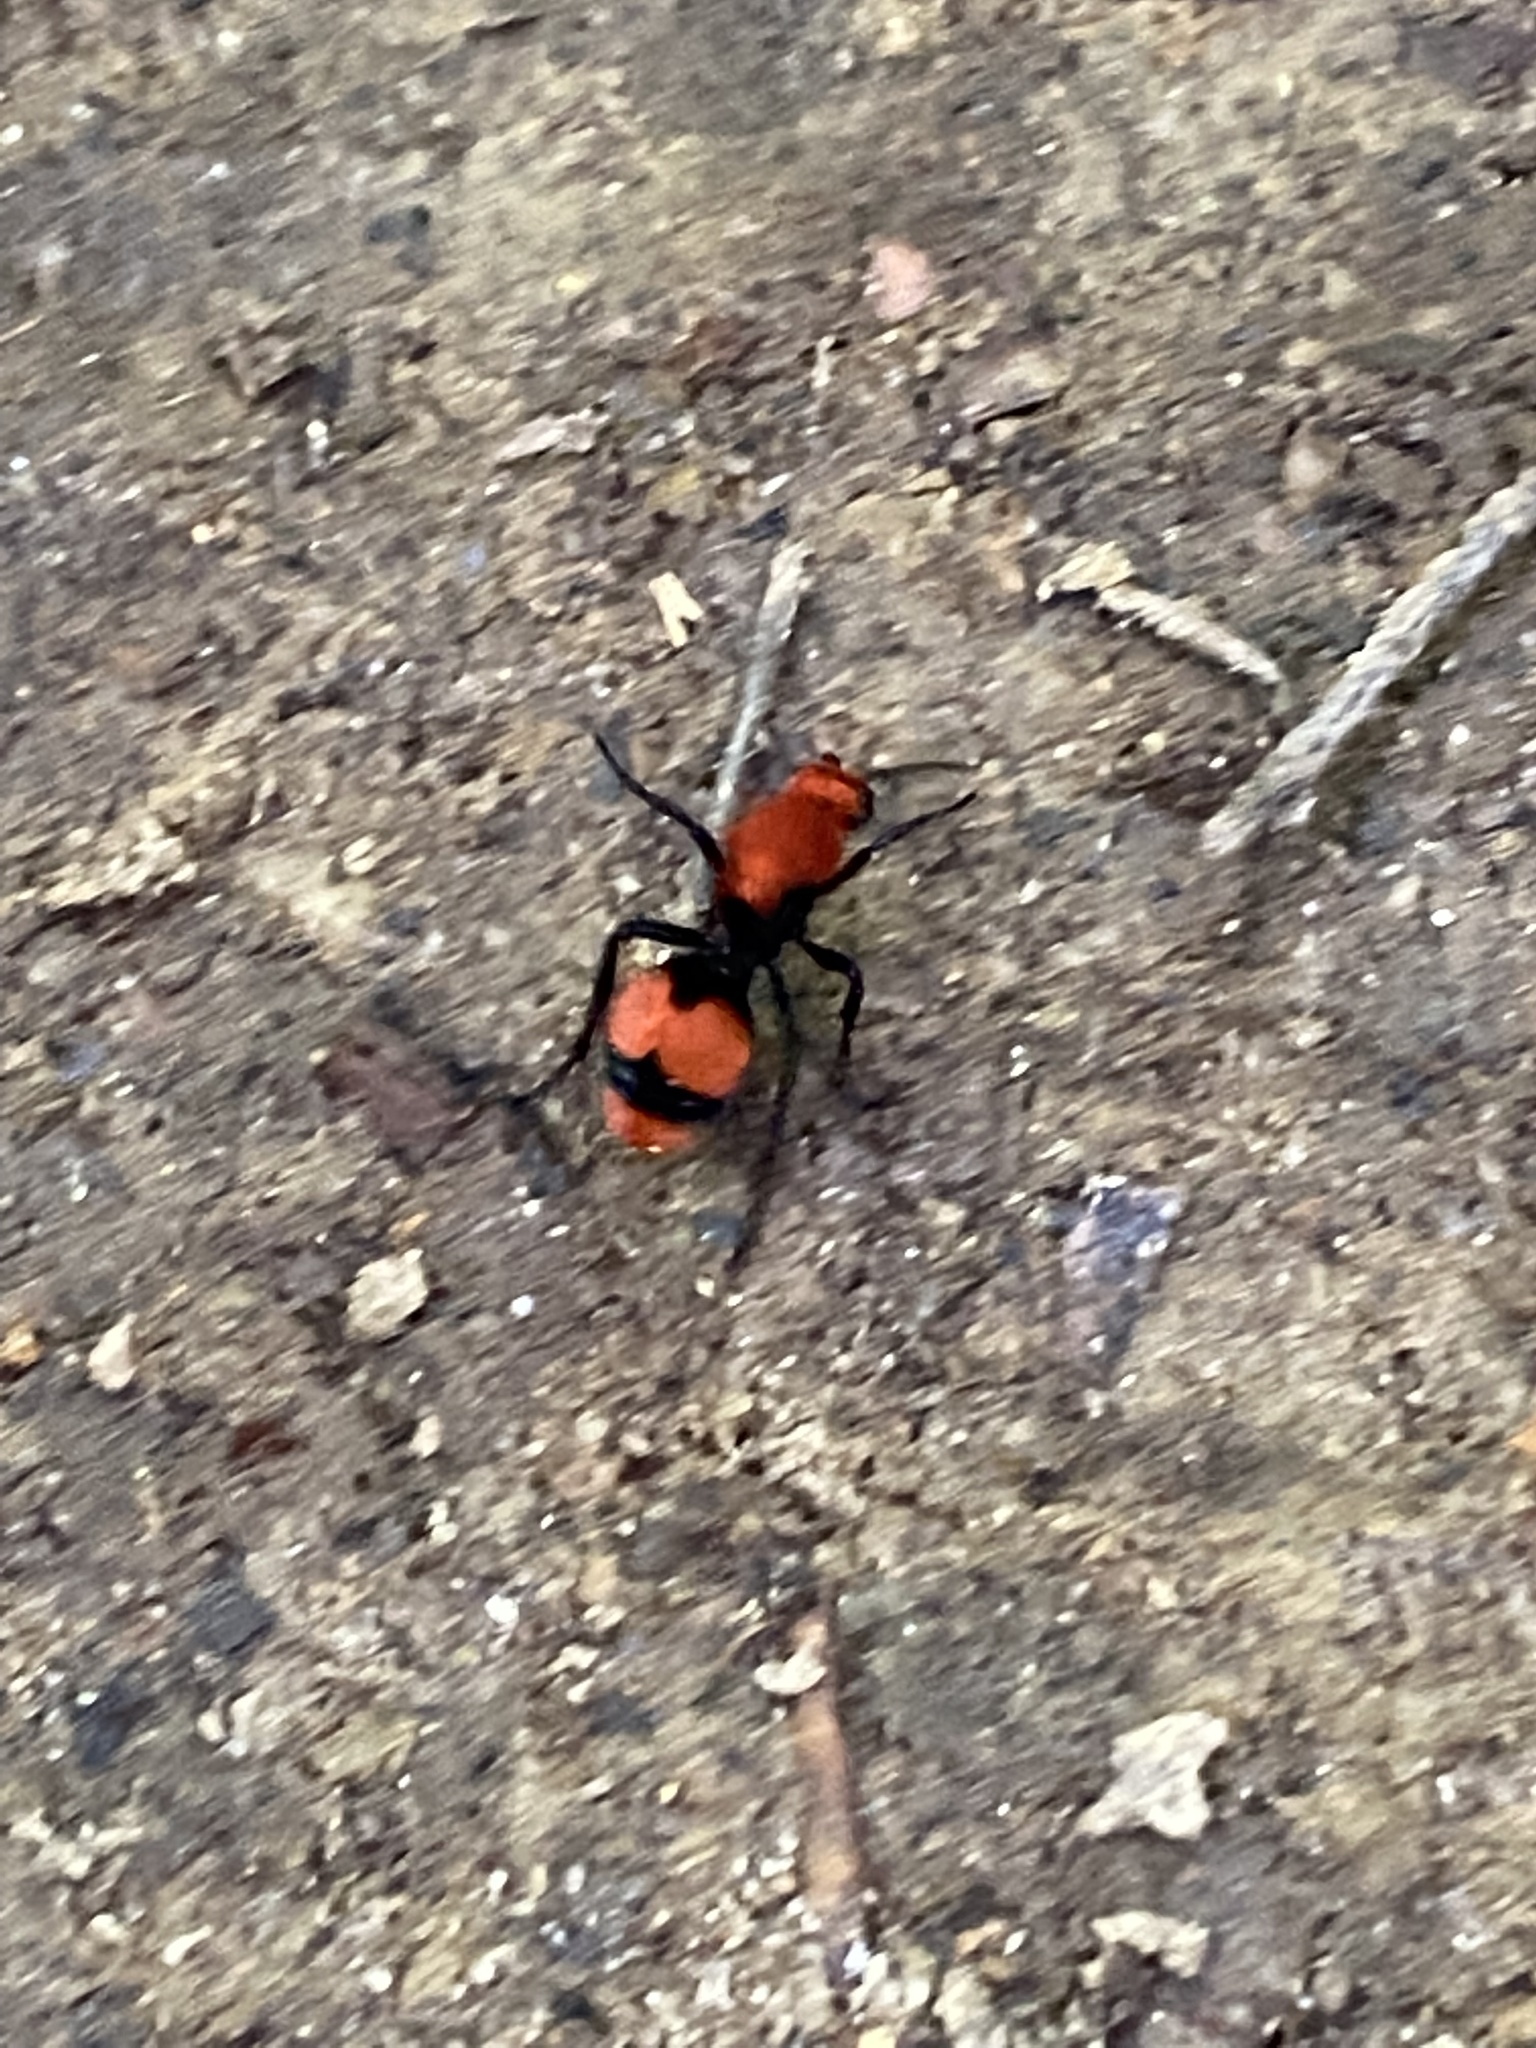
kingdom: Animalia
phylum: Arthropoda
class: Insecta
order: Hymenoptera
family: Mutillidae
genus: Dasymutilla
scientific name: Dasymutilla occidentalis
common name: Common eastern velvet ant
